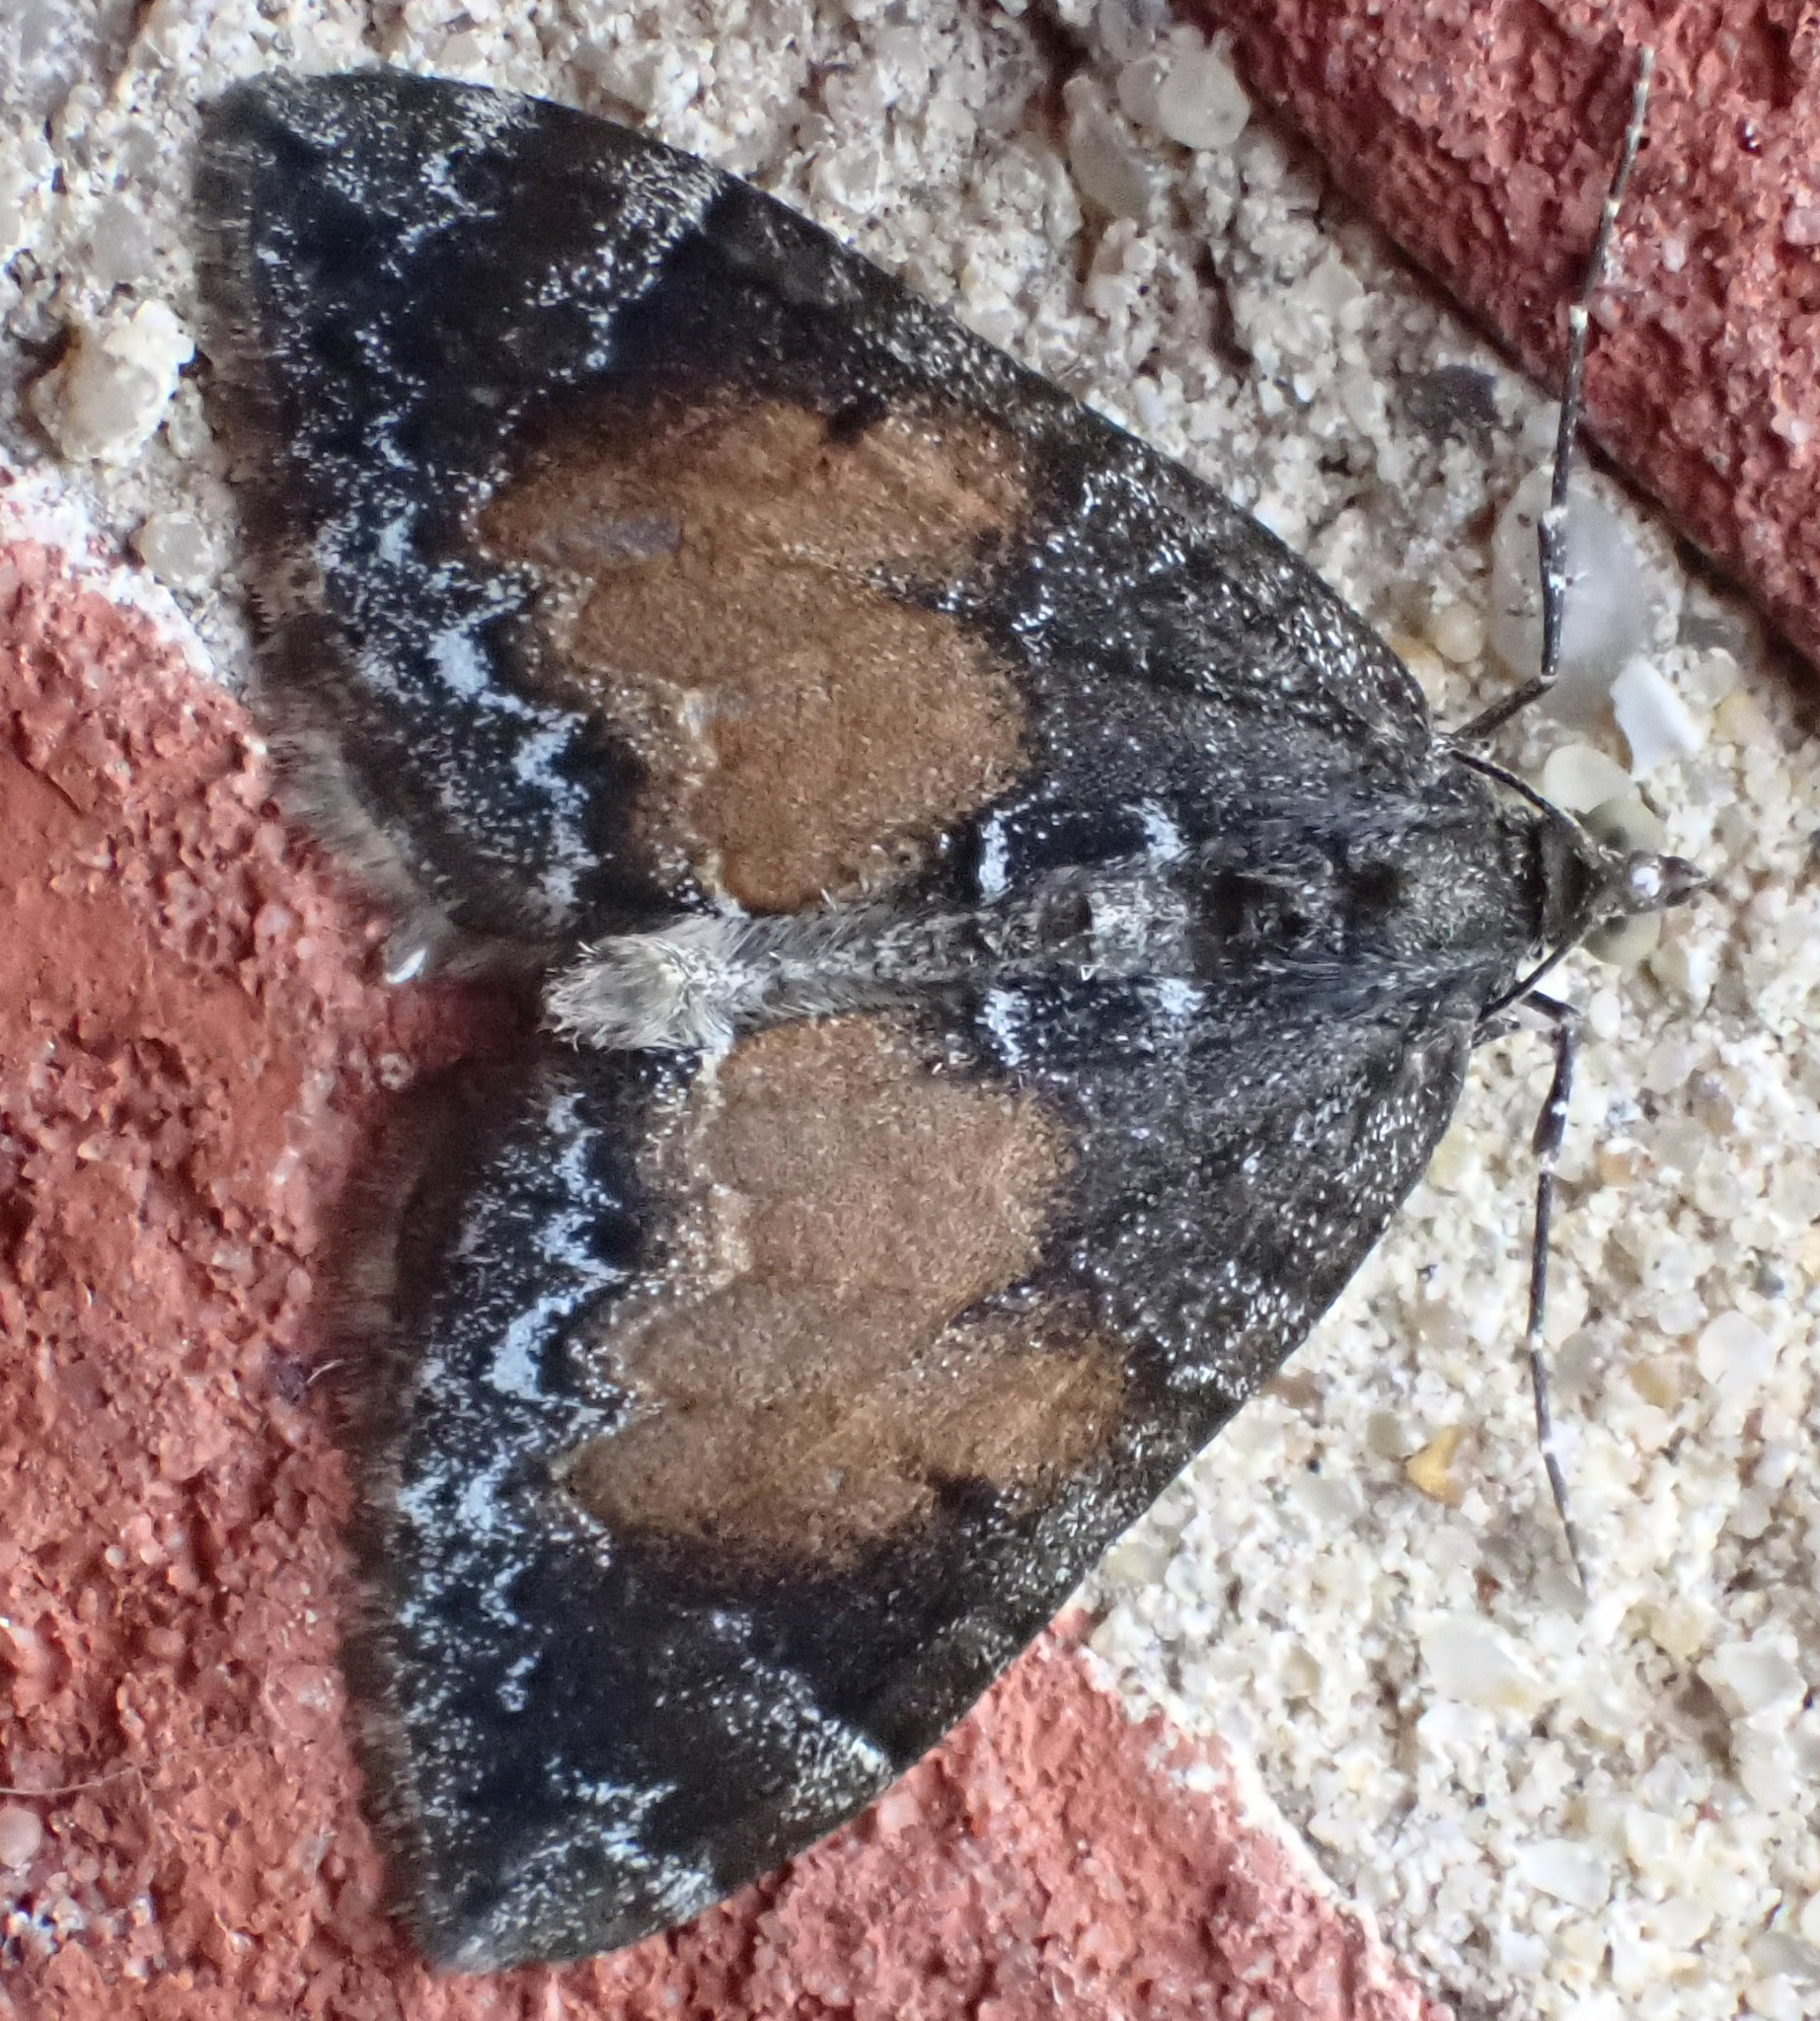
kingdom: Animalia
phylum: Arthropoda
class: Insecta
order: Lepidoptera
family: Geometridae
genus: Dysstroma
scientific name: Dysstroma truncata
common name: Common marbled carpet
